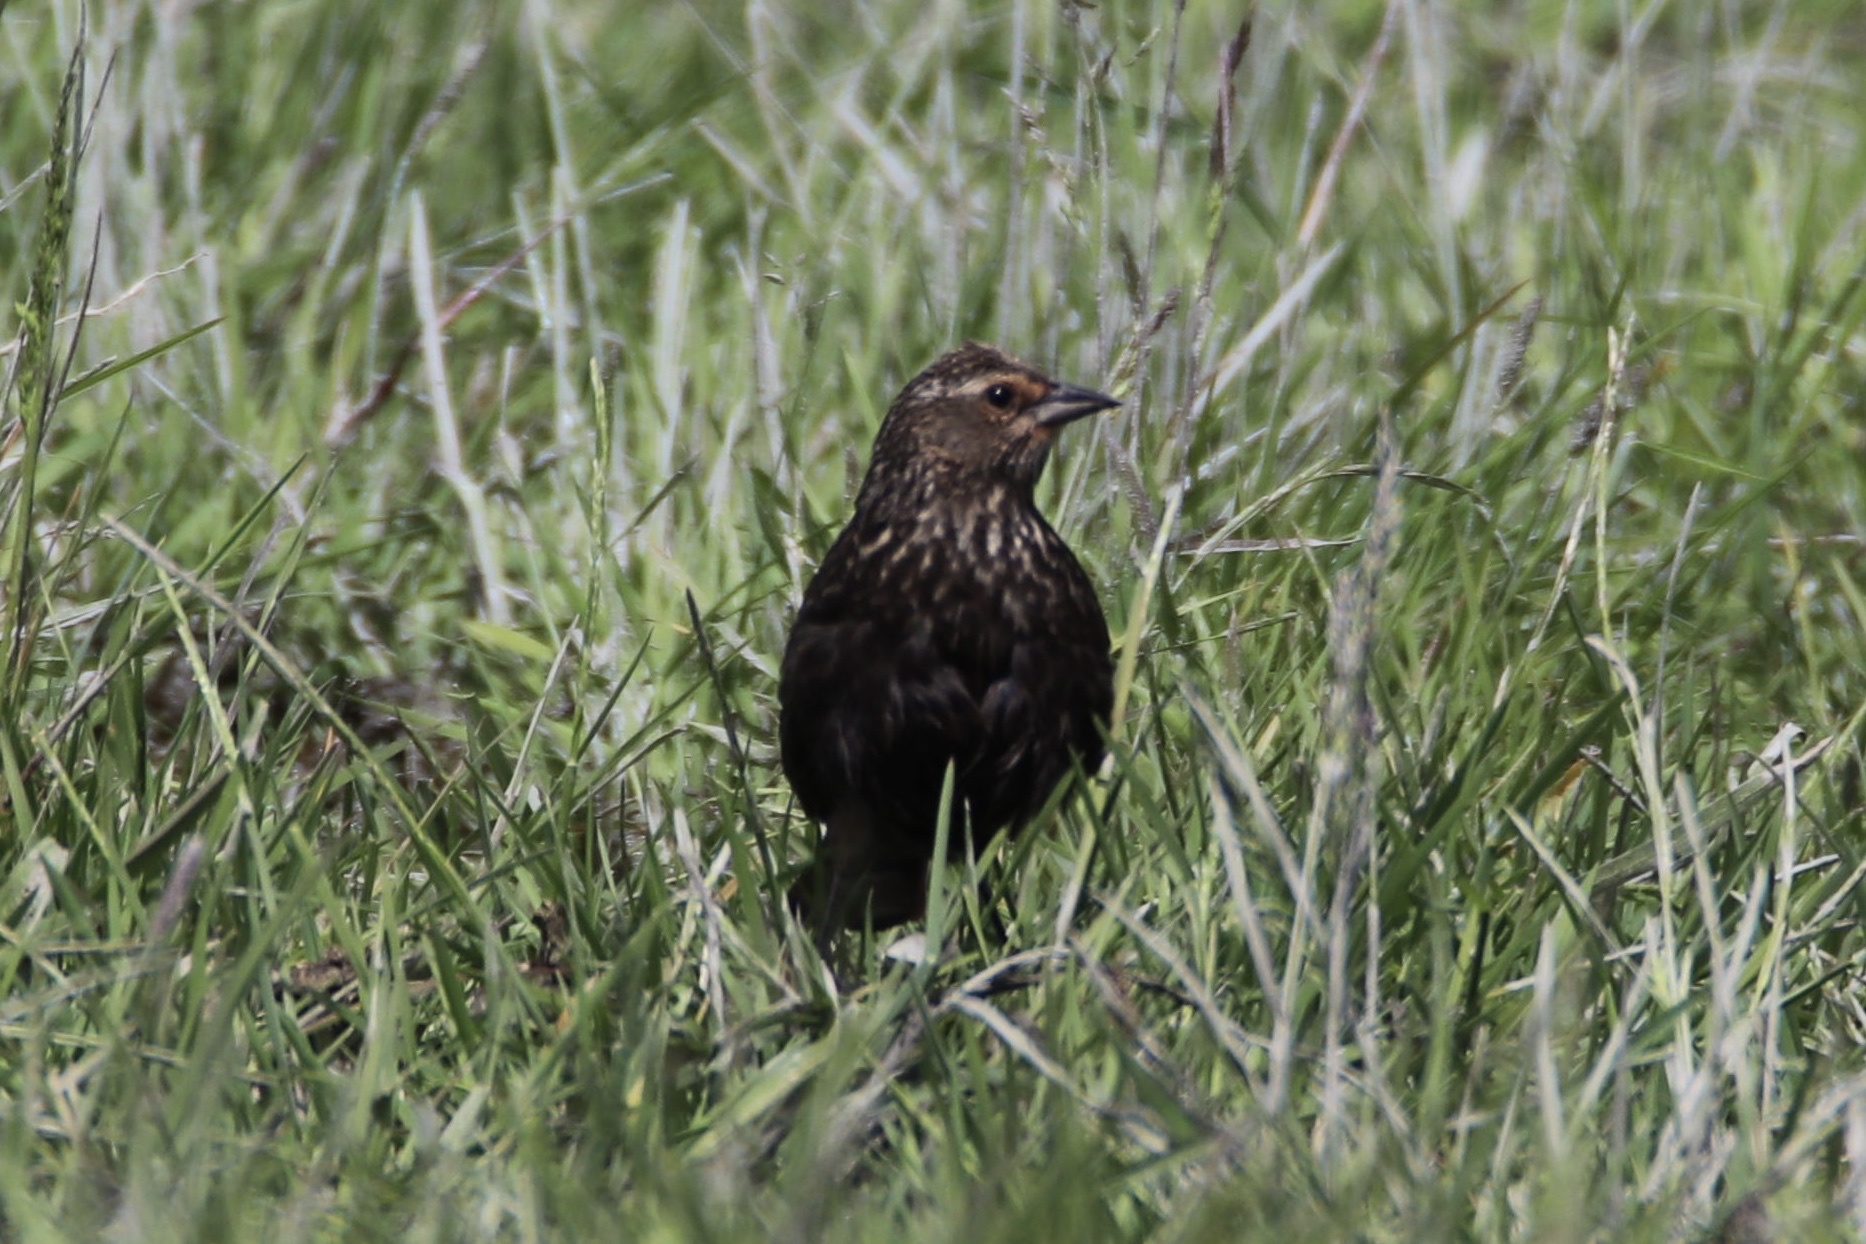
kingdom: Animalia
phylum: Chordata
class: Aves
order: Passeriformes
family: Icteridae
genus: Agelaius
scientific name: Agelaius phoeniceus
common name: Red-winged blackbird
